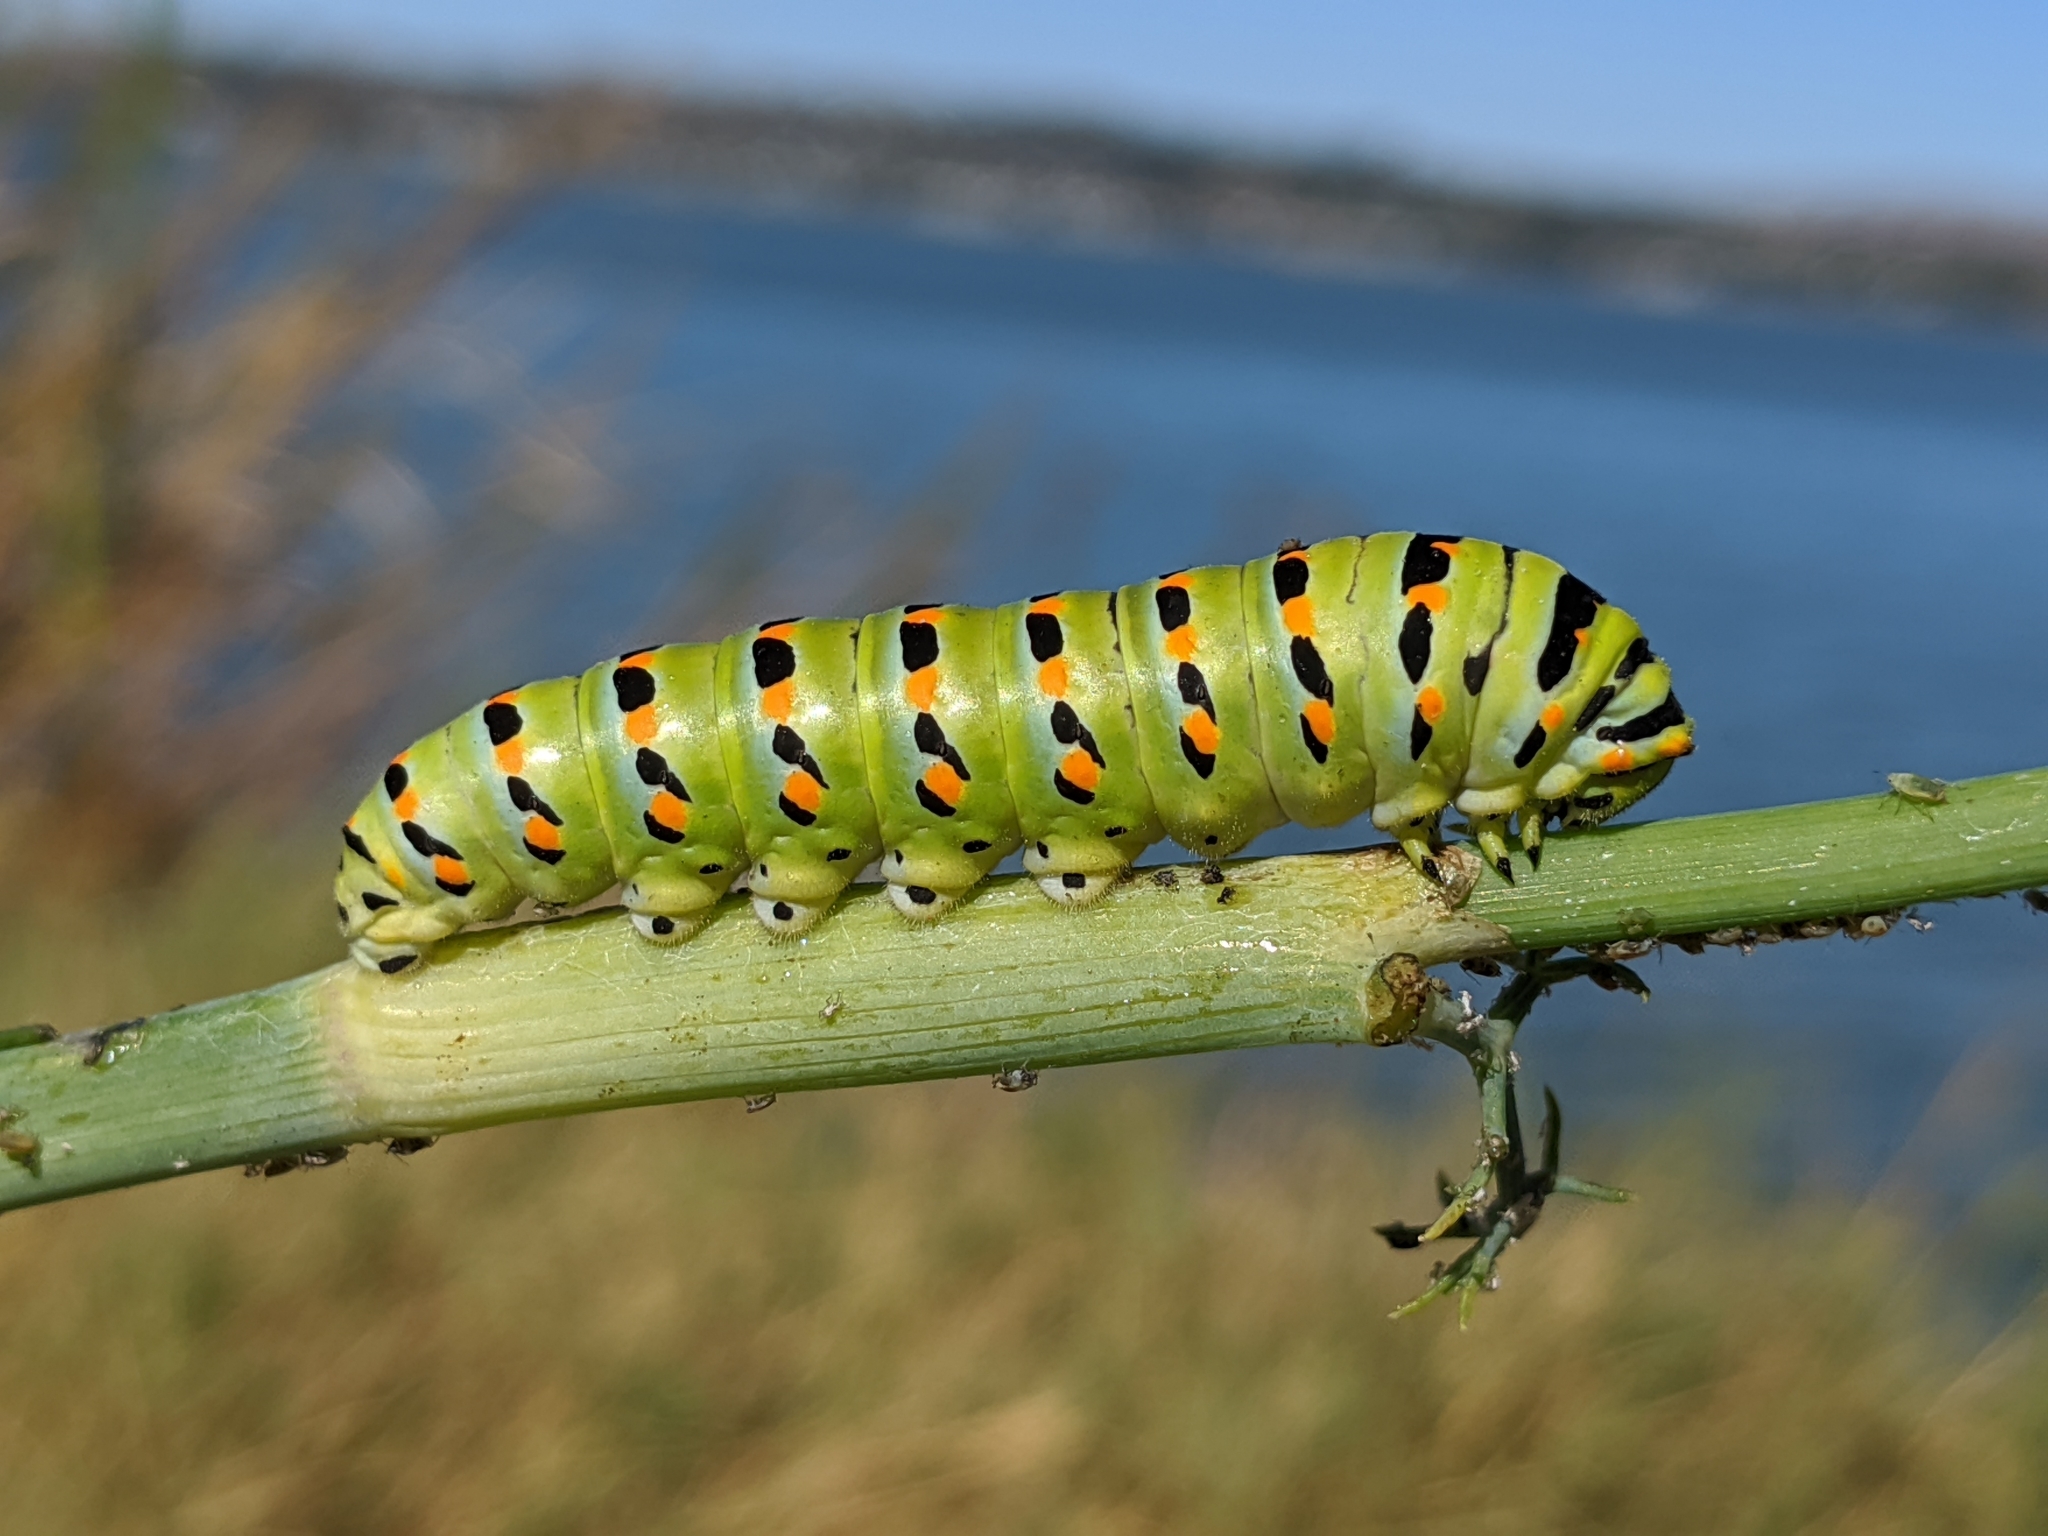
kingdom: Animalia
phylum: Arthropoda
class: Insecta
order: Lepidoptera
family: Papilionidae
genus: Papilio
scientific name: Papilio zelicaon
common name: Anise swallowtail
